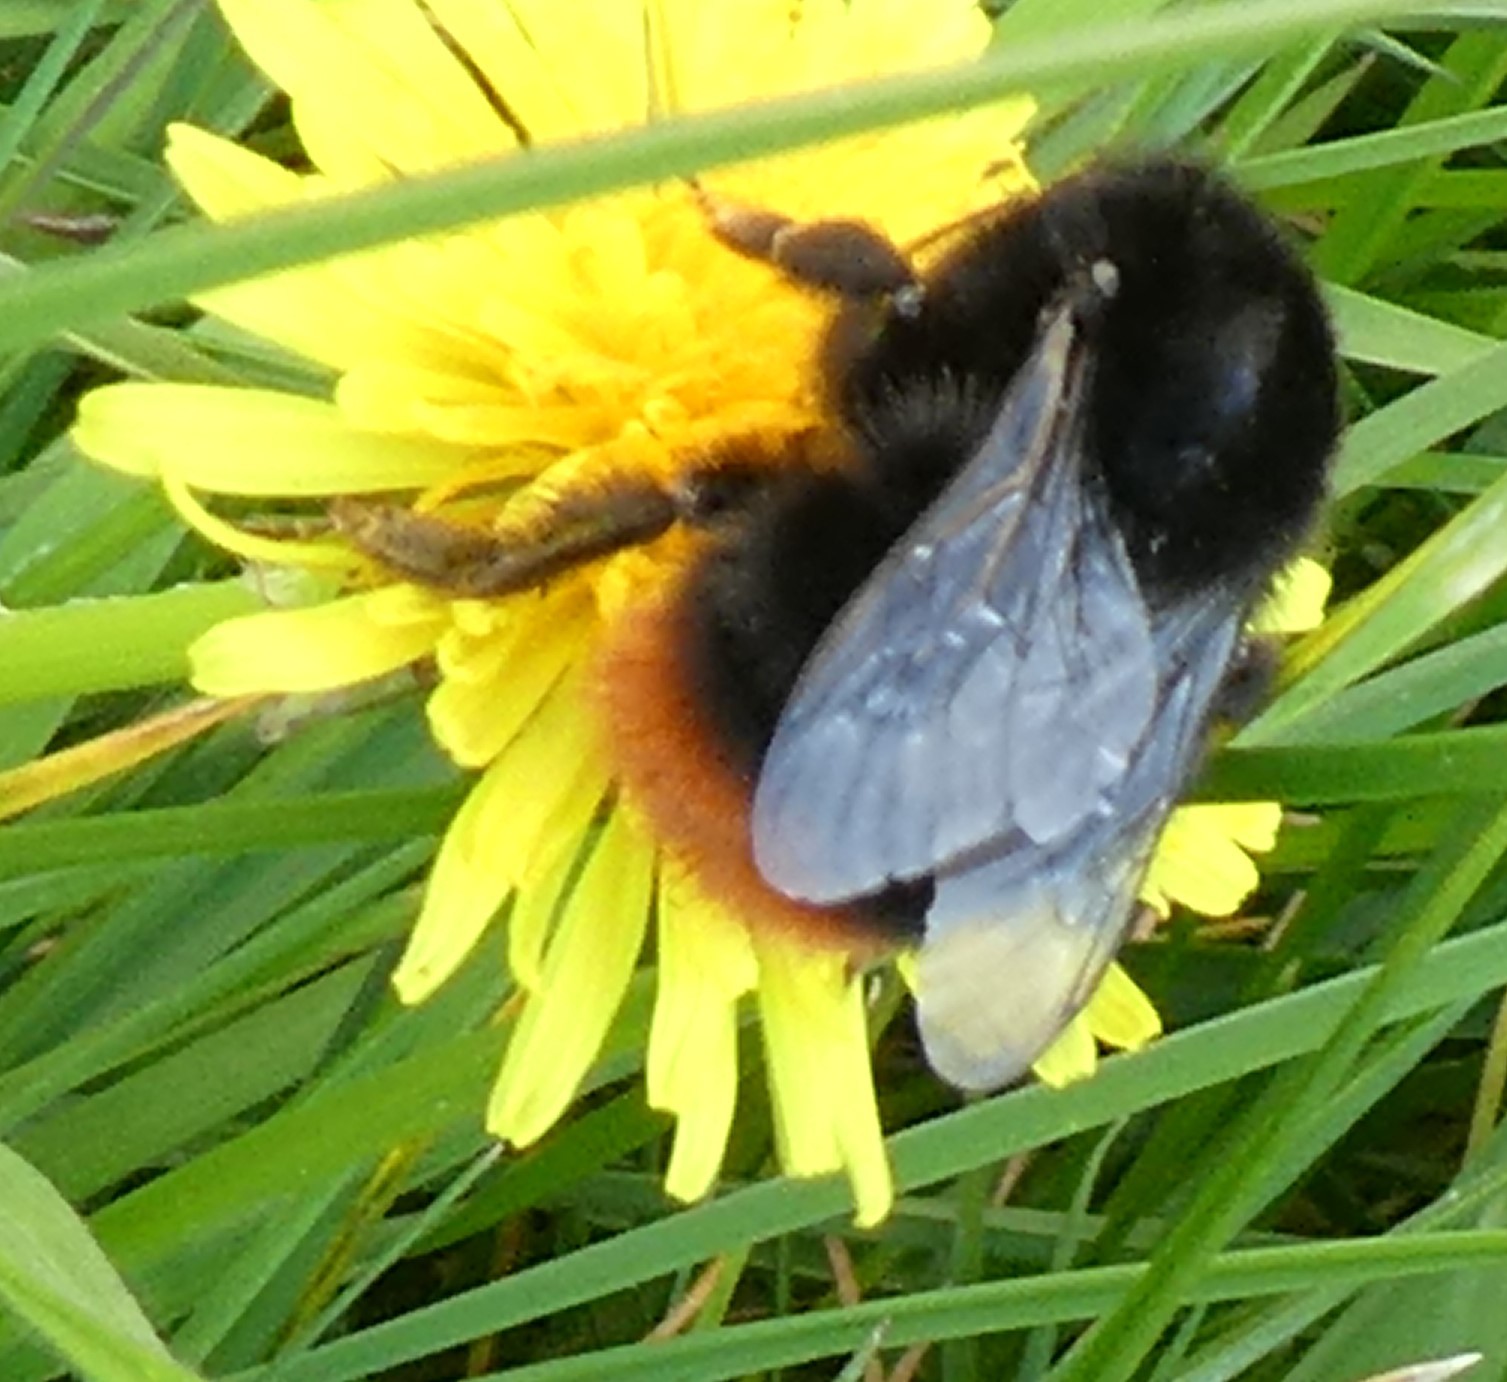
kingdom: Animalia
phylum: Arthropoda
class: Insecta
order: Hymenoptera
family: Apidae
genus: Bombus
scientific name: Bombus lapidarius
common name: Large red-tailed humble-bee
